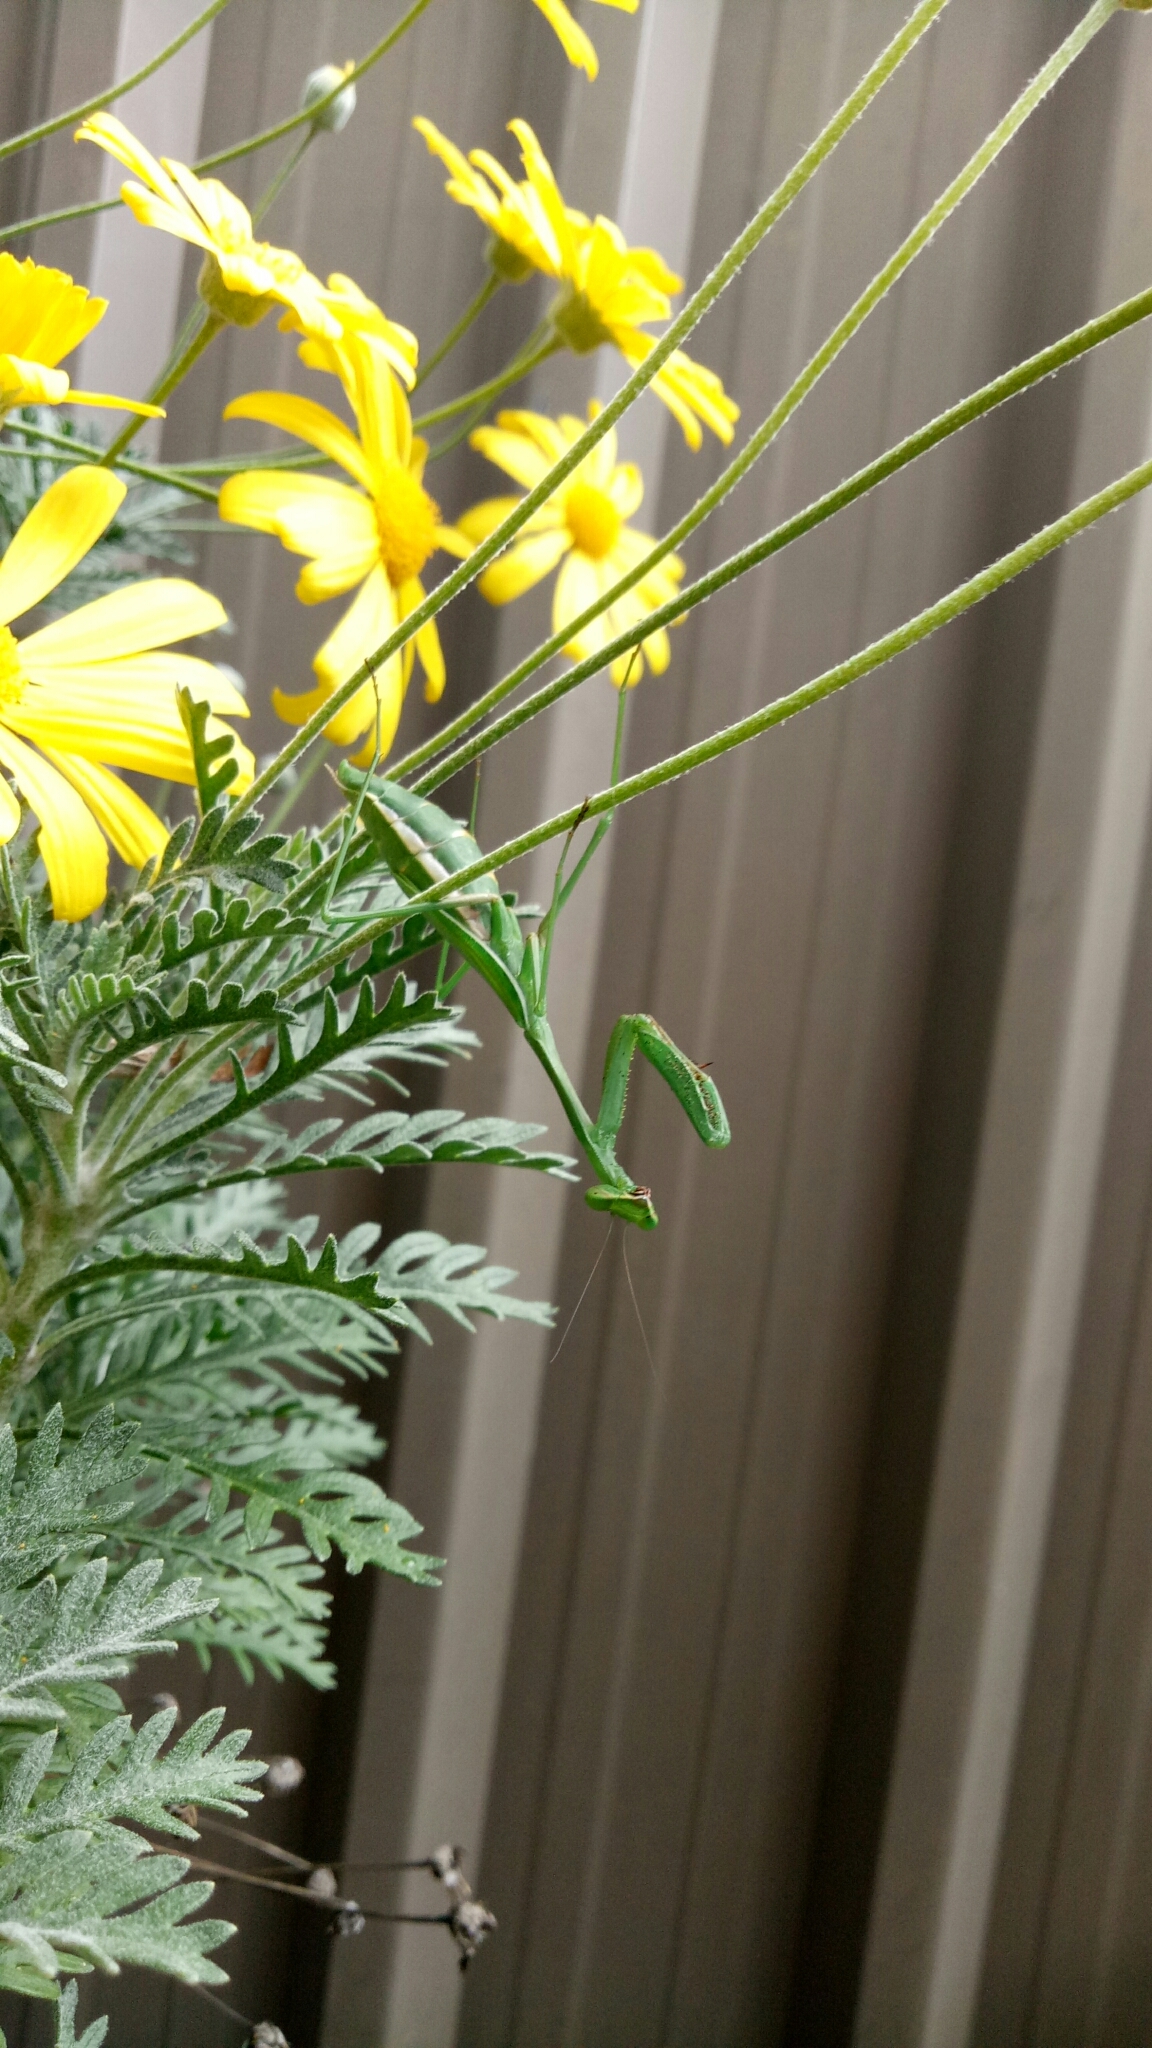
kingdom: Animalia
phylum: Arthropoda
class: Insecta
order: Mantodea
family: Mantidae
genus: Pseudomantis
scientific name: Pseudomantis albofimbriata
